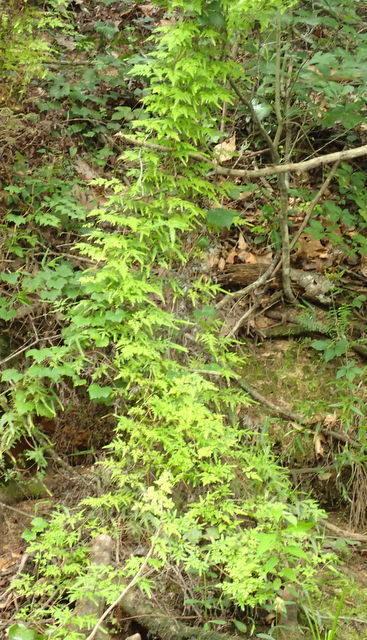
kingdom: Plantae
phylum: Tracheophyta
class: Polypodiopsida
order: Schizaeales
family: Lygodiaceae
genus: Lygodium
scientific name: Lygodium japonicum
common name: Japanese climbing fern
